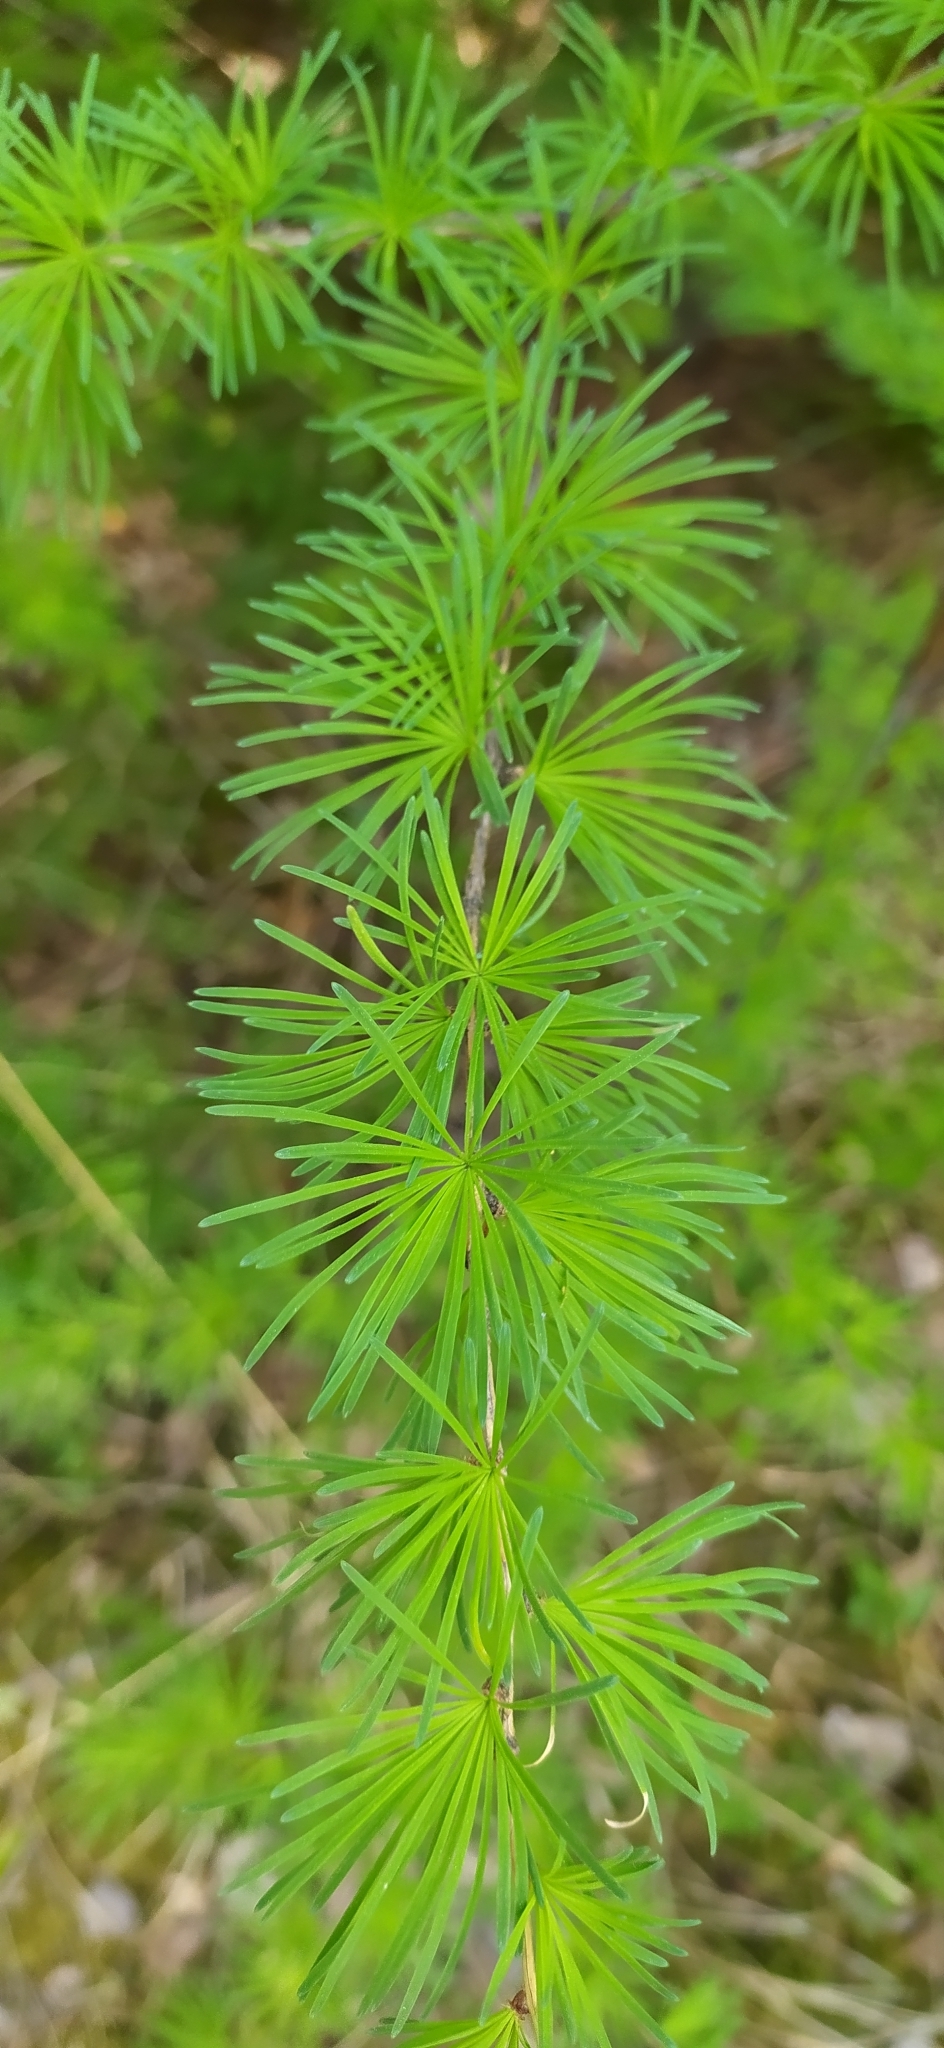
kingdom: Plantae
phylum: Tracheophyta
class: Pinopsida
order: Pinales
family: Pinaceae
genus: Larix
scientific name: Larix sibirica
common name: Siberian larch
